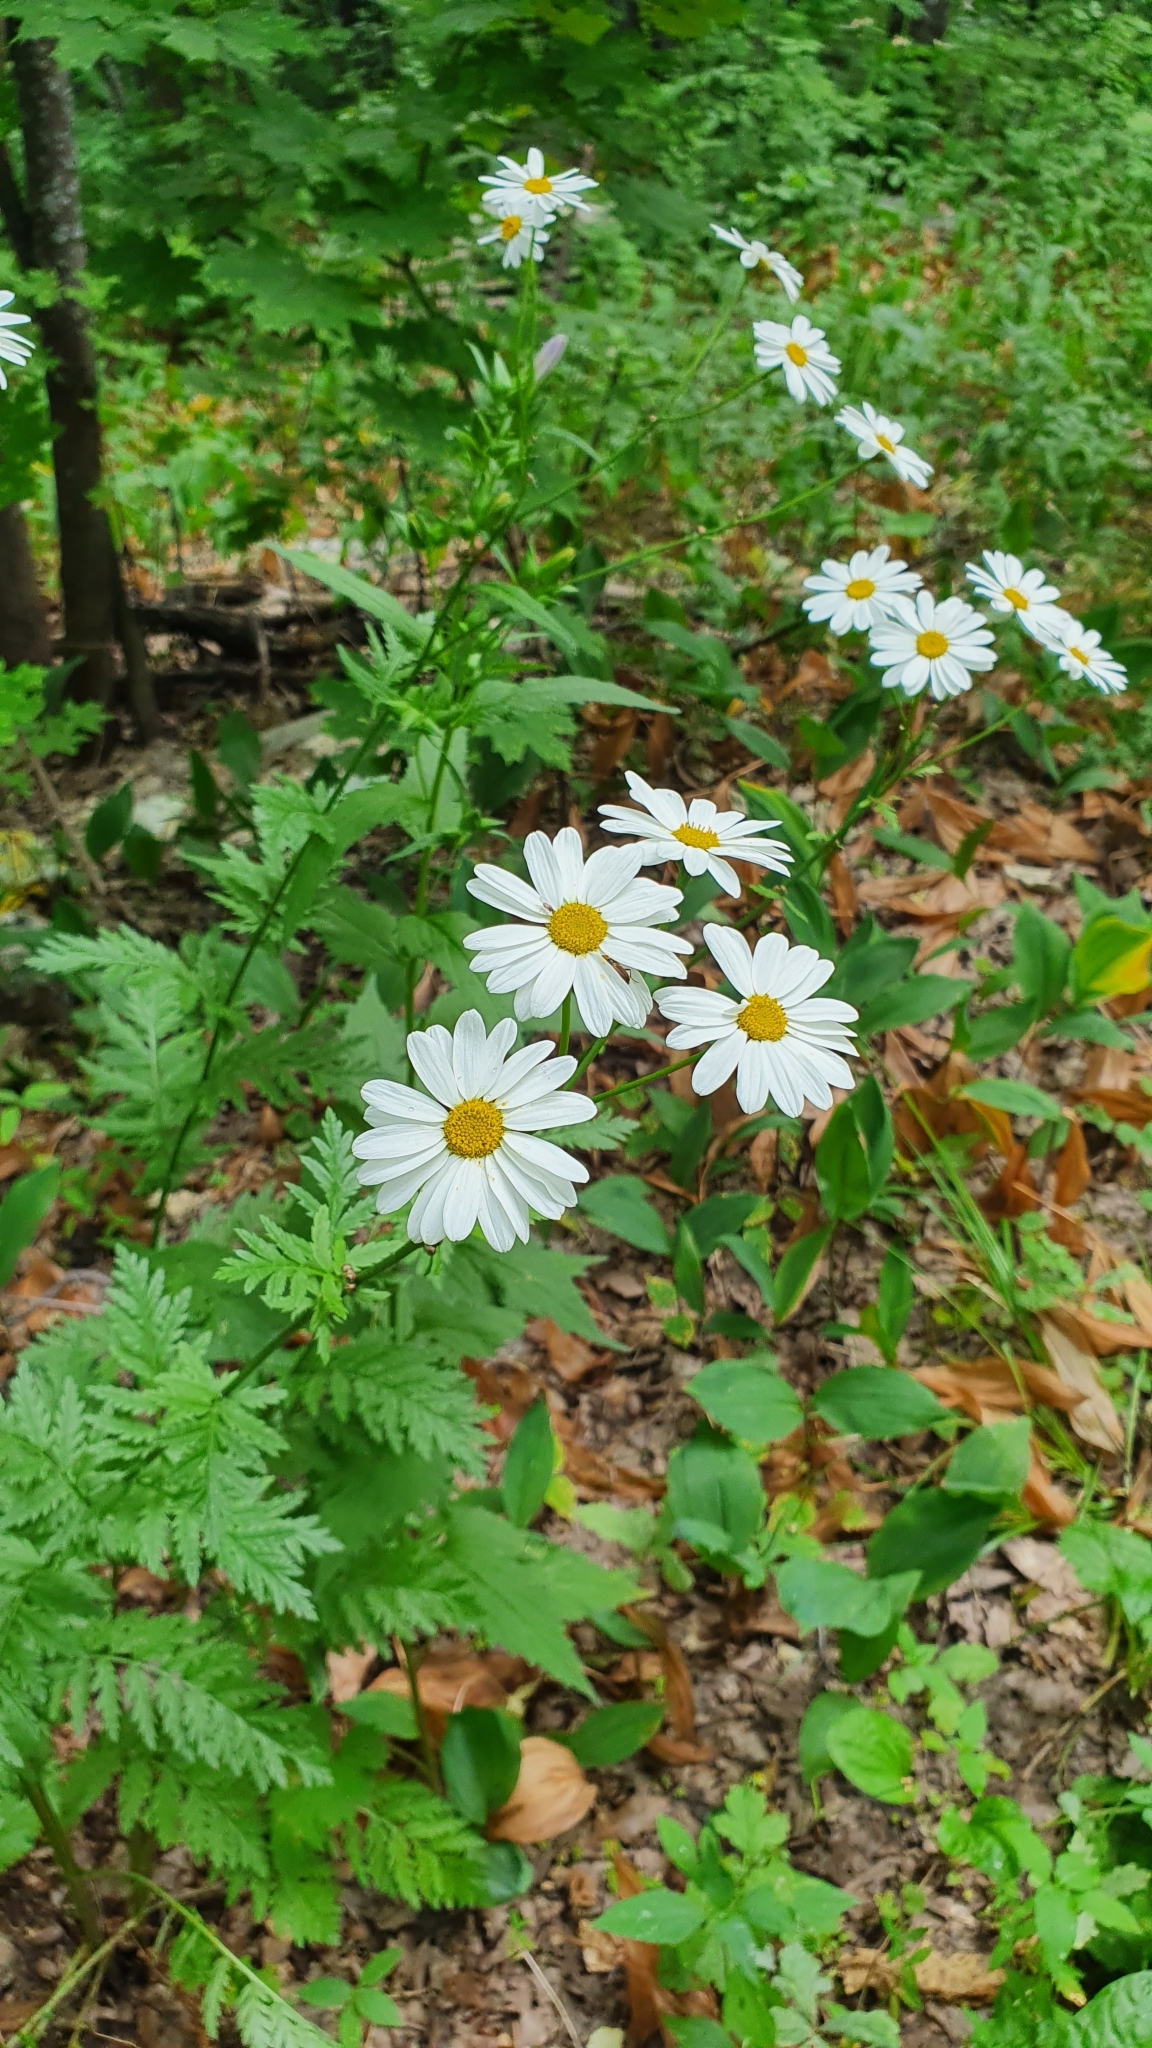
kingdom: Plantae
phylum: Tracheophyta
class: Magnoliopsida
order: Asterales
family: Asteraceae
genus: Tanacetum
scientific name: Tanacetum corymbosum
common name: Scentless feverfew
